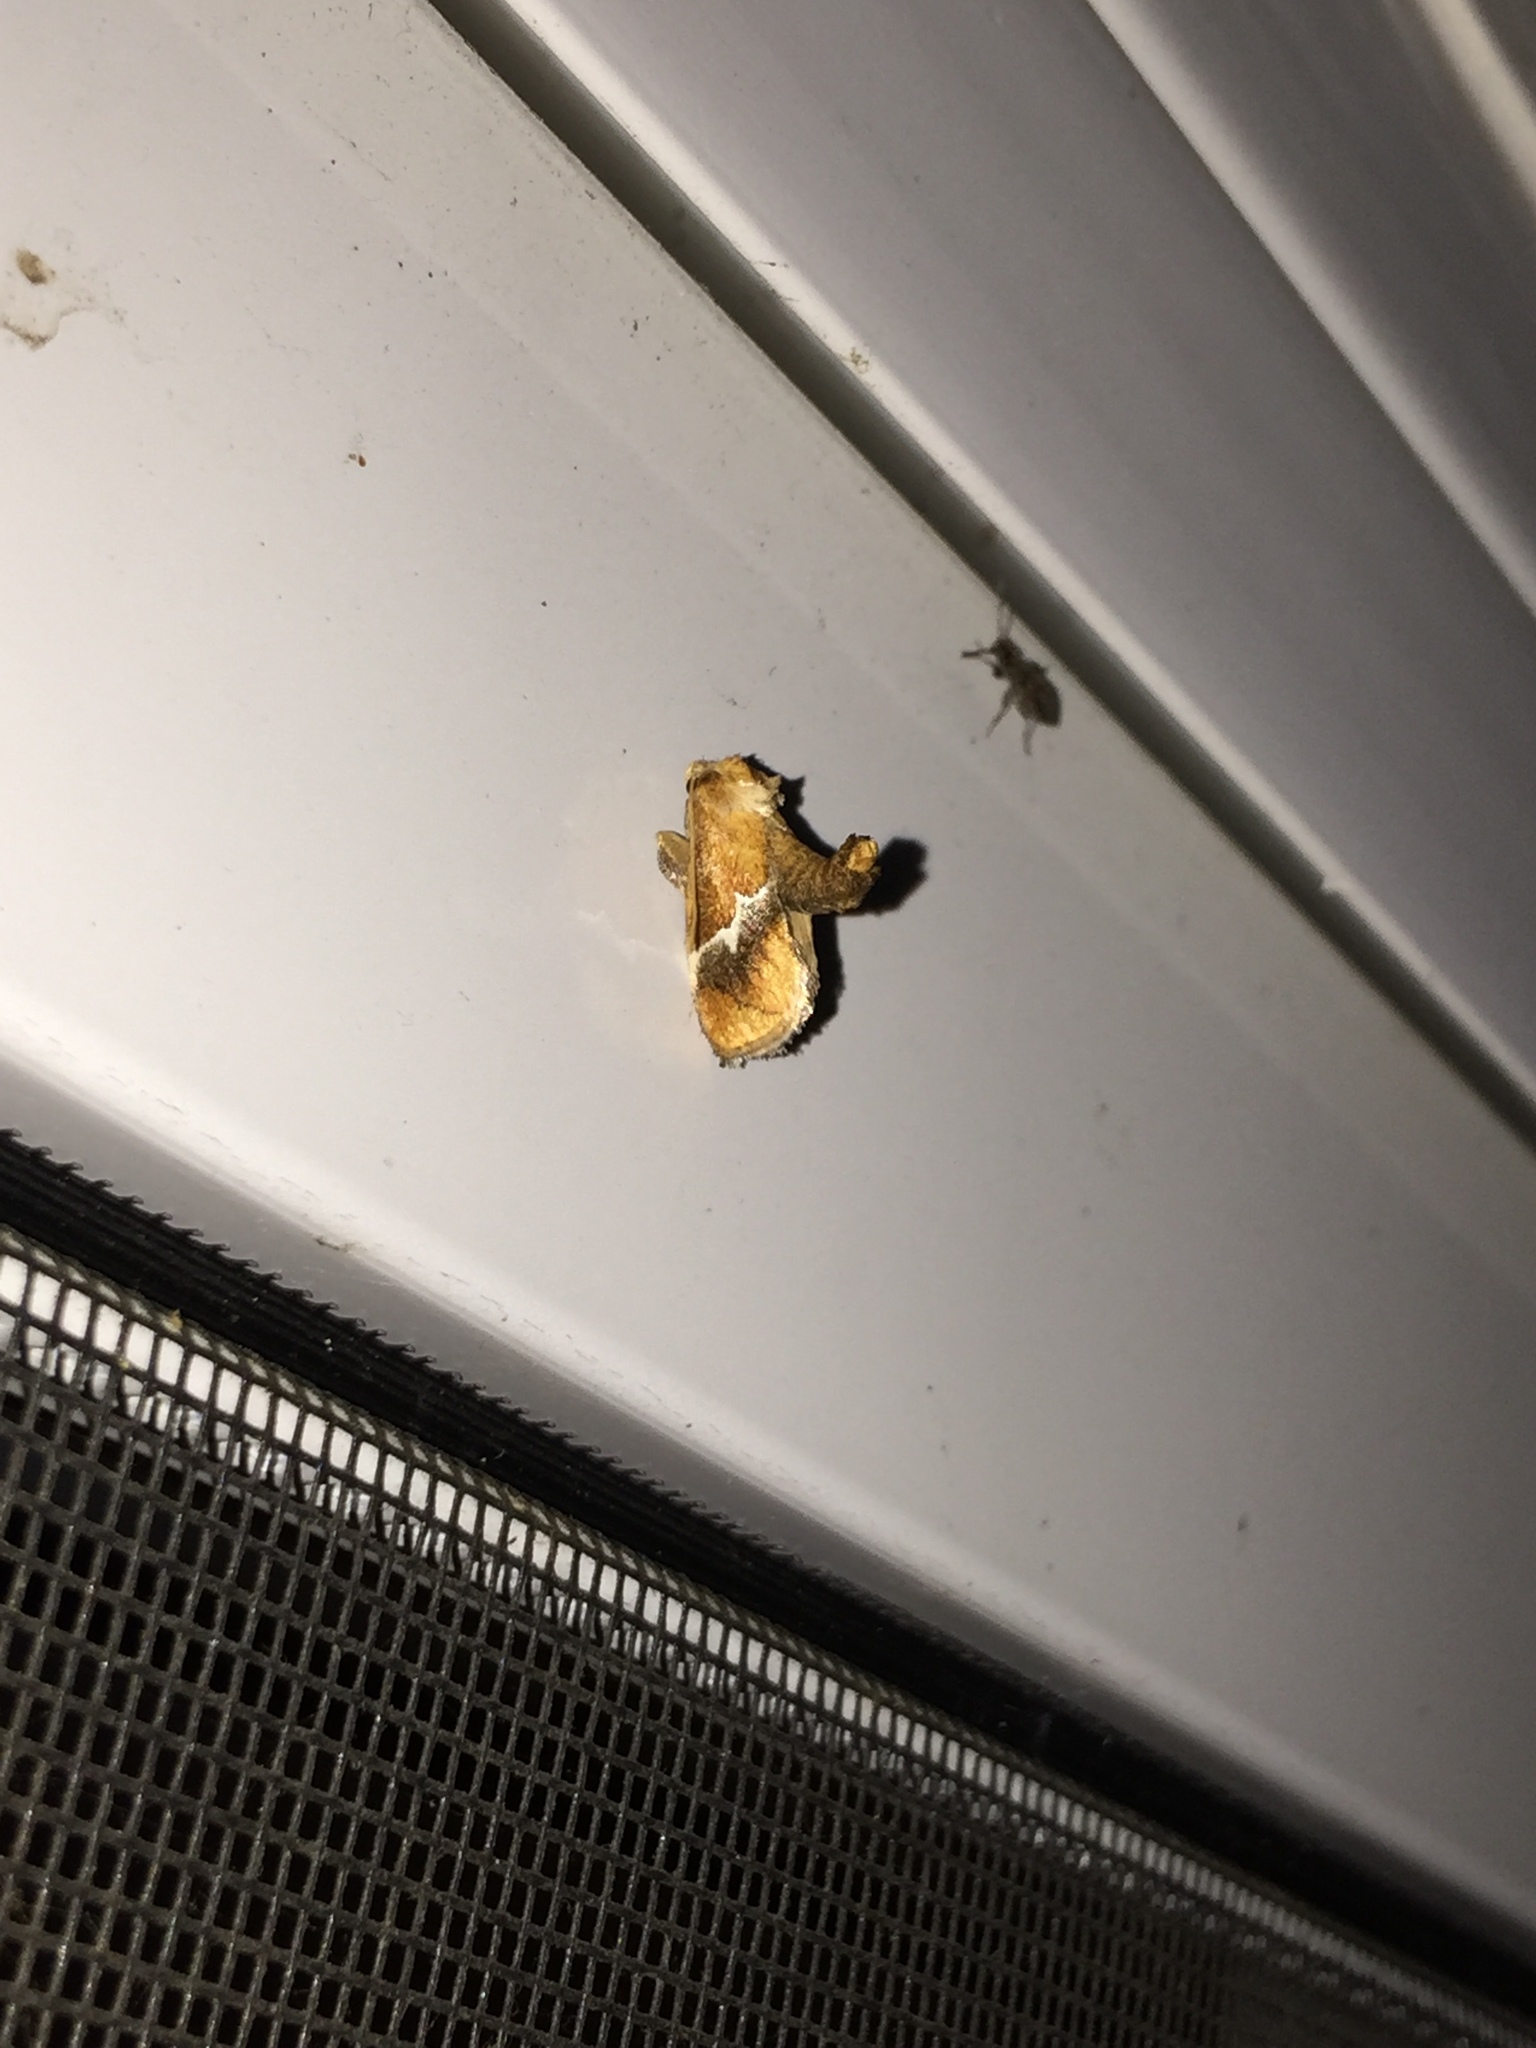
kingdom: Animalia
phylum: Arthropoda
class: Insecta
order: Lepidoptera
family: Limacodidae
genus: Lithacodes
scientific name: Lithacodes fasciola
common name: Yellow-shouldered slug moth
